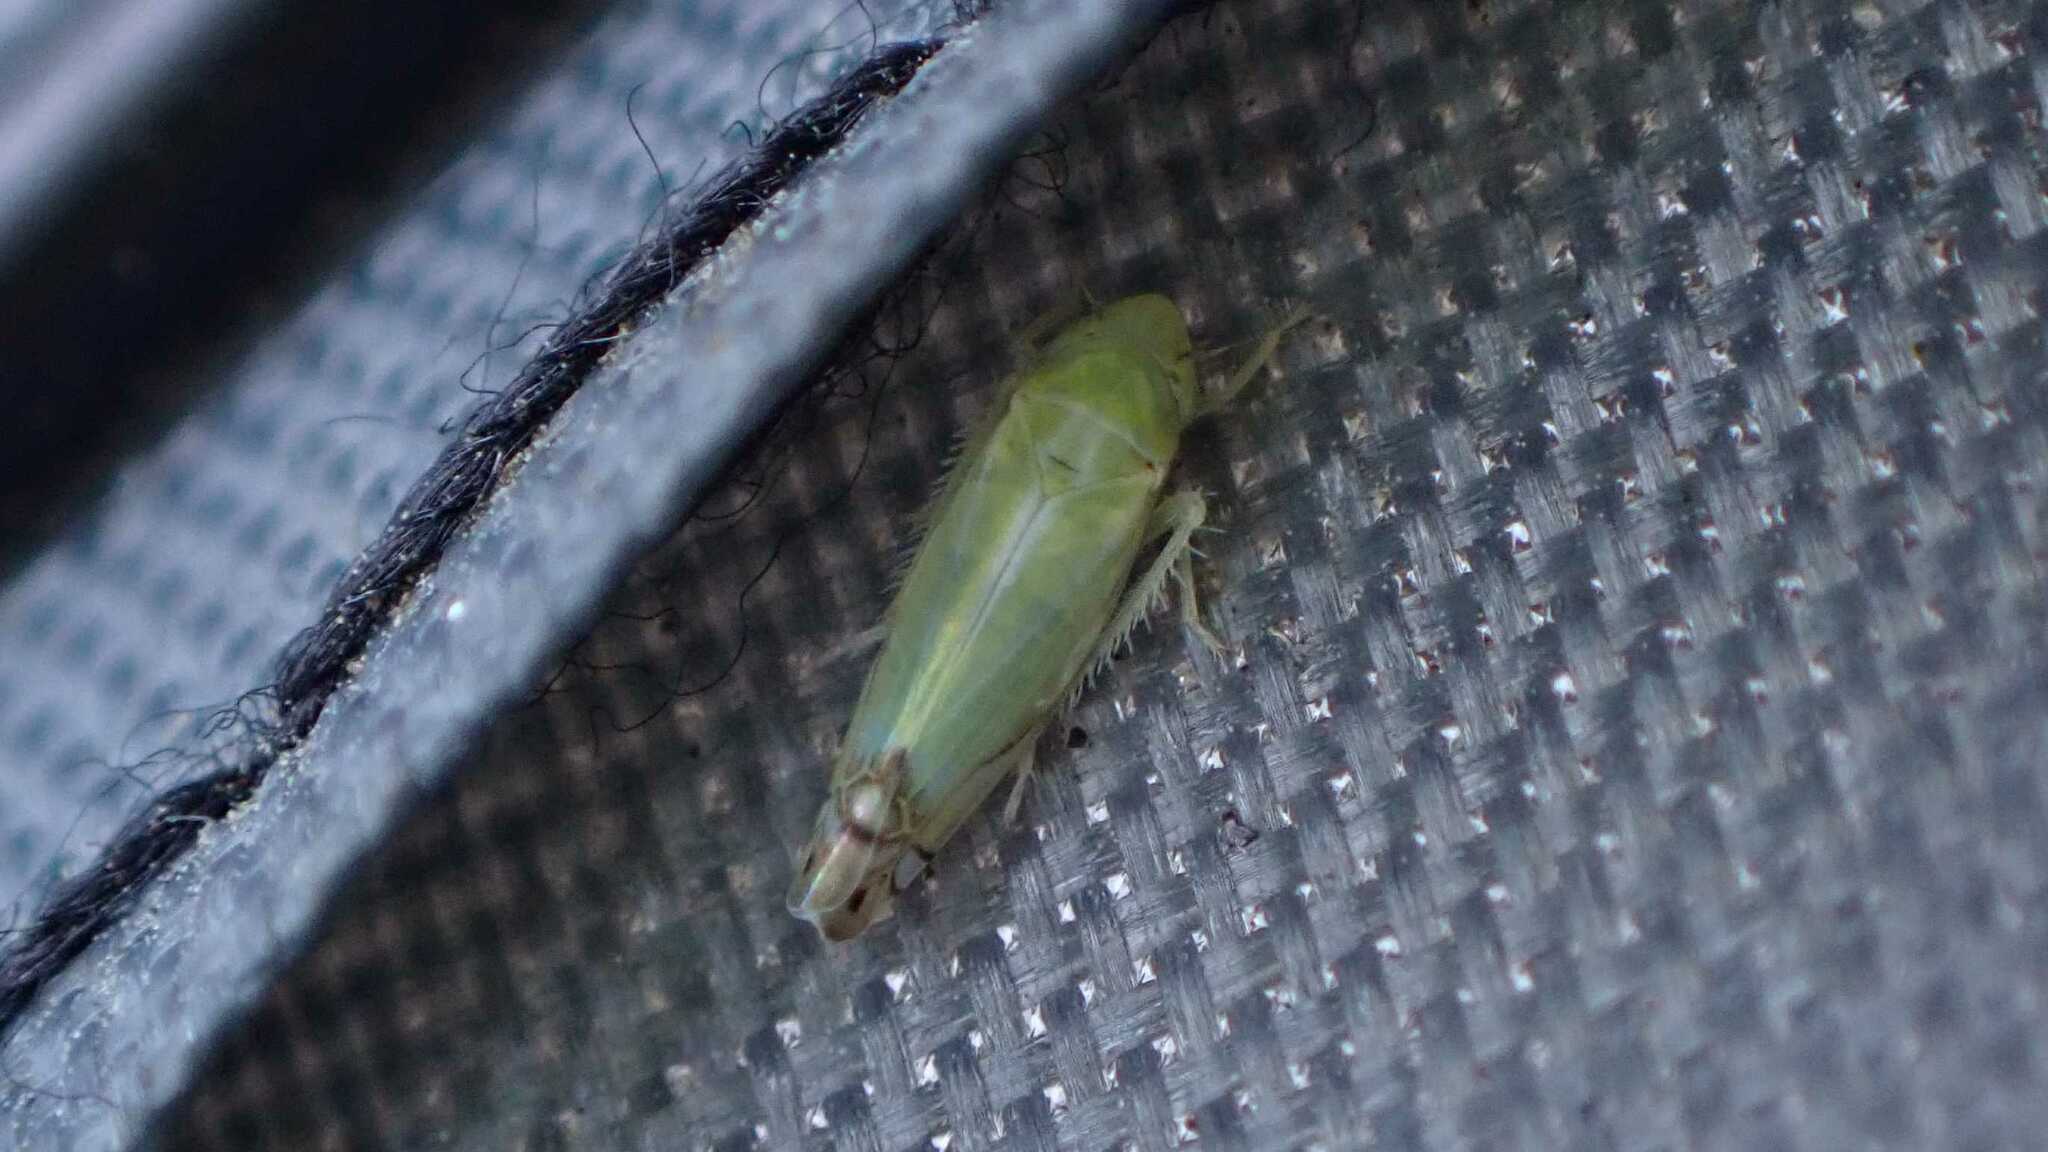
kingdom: Animalia
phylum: Arthropoda
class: Insecta
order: Hemiptera
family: Cicadellidae
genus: Zyginella
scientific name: Zyginella pulchra
